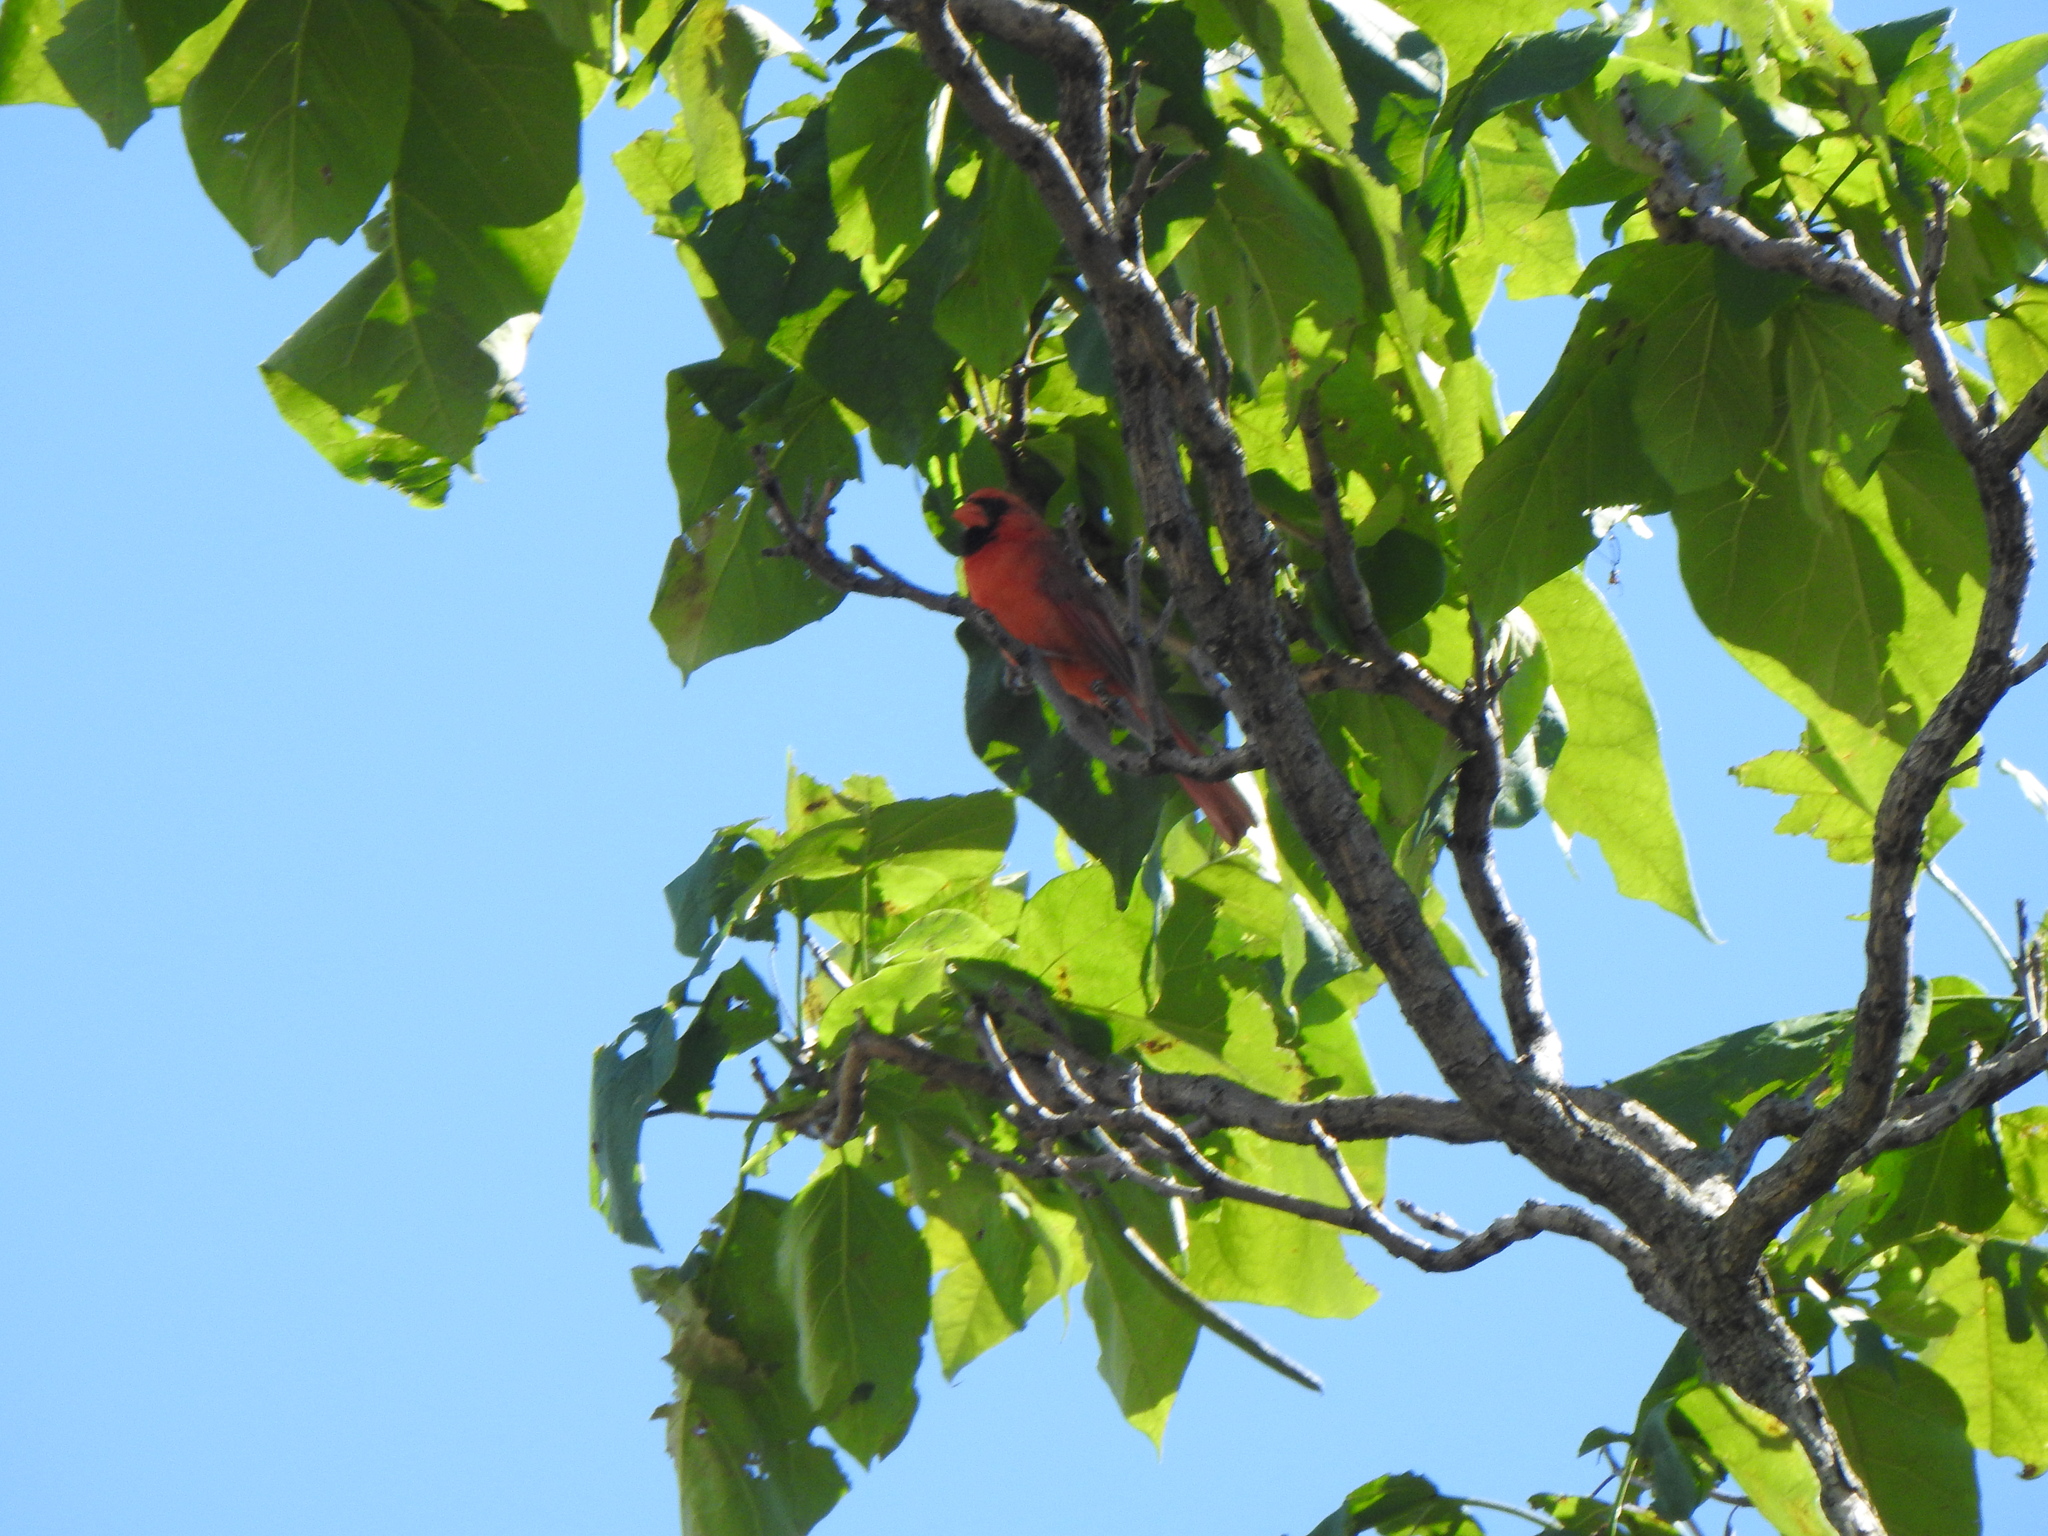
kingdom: Animalia
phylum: Chordata
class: Aves
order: Passeriformes
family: Cardinalidae
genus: Cardinalis
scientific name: Cardinalis cardinalis
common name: Northern cardinal
